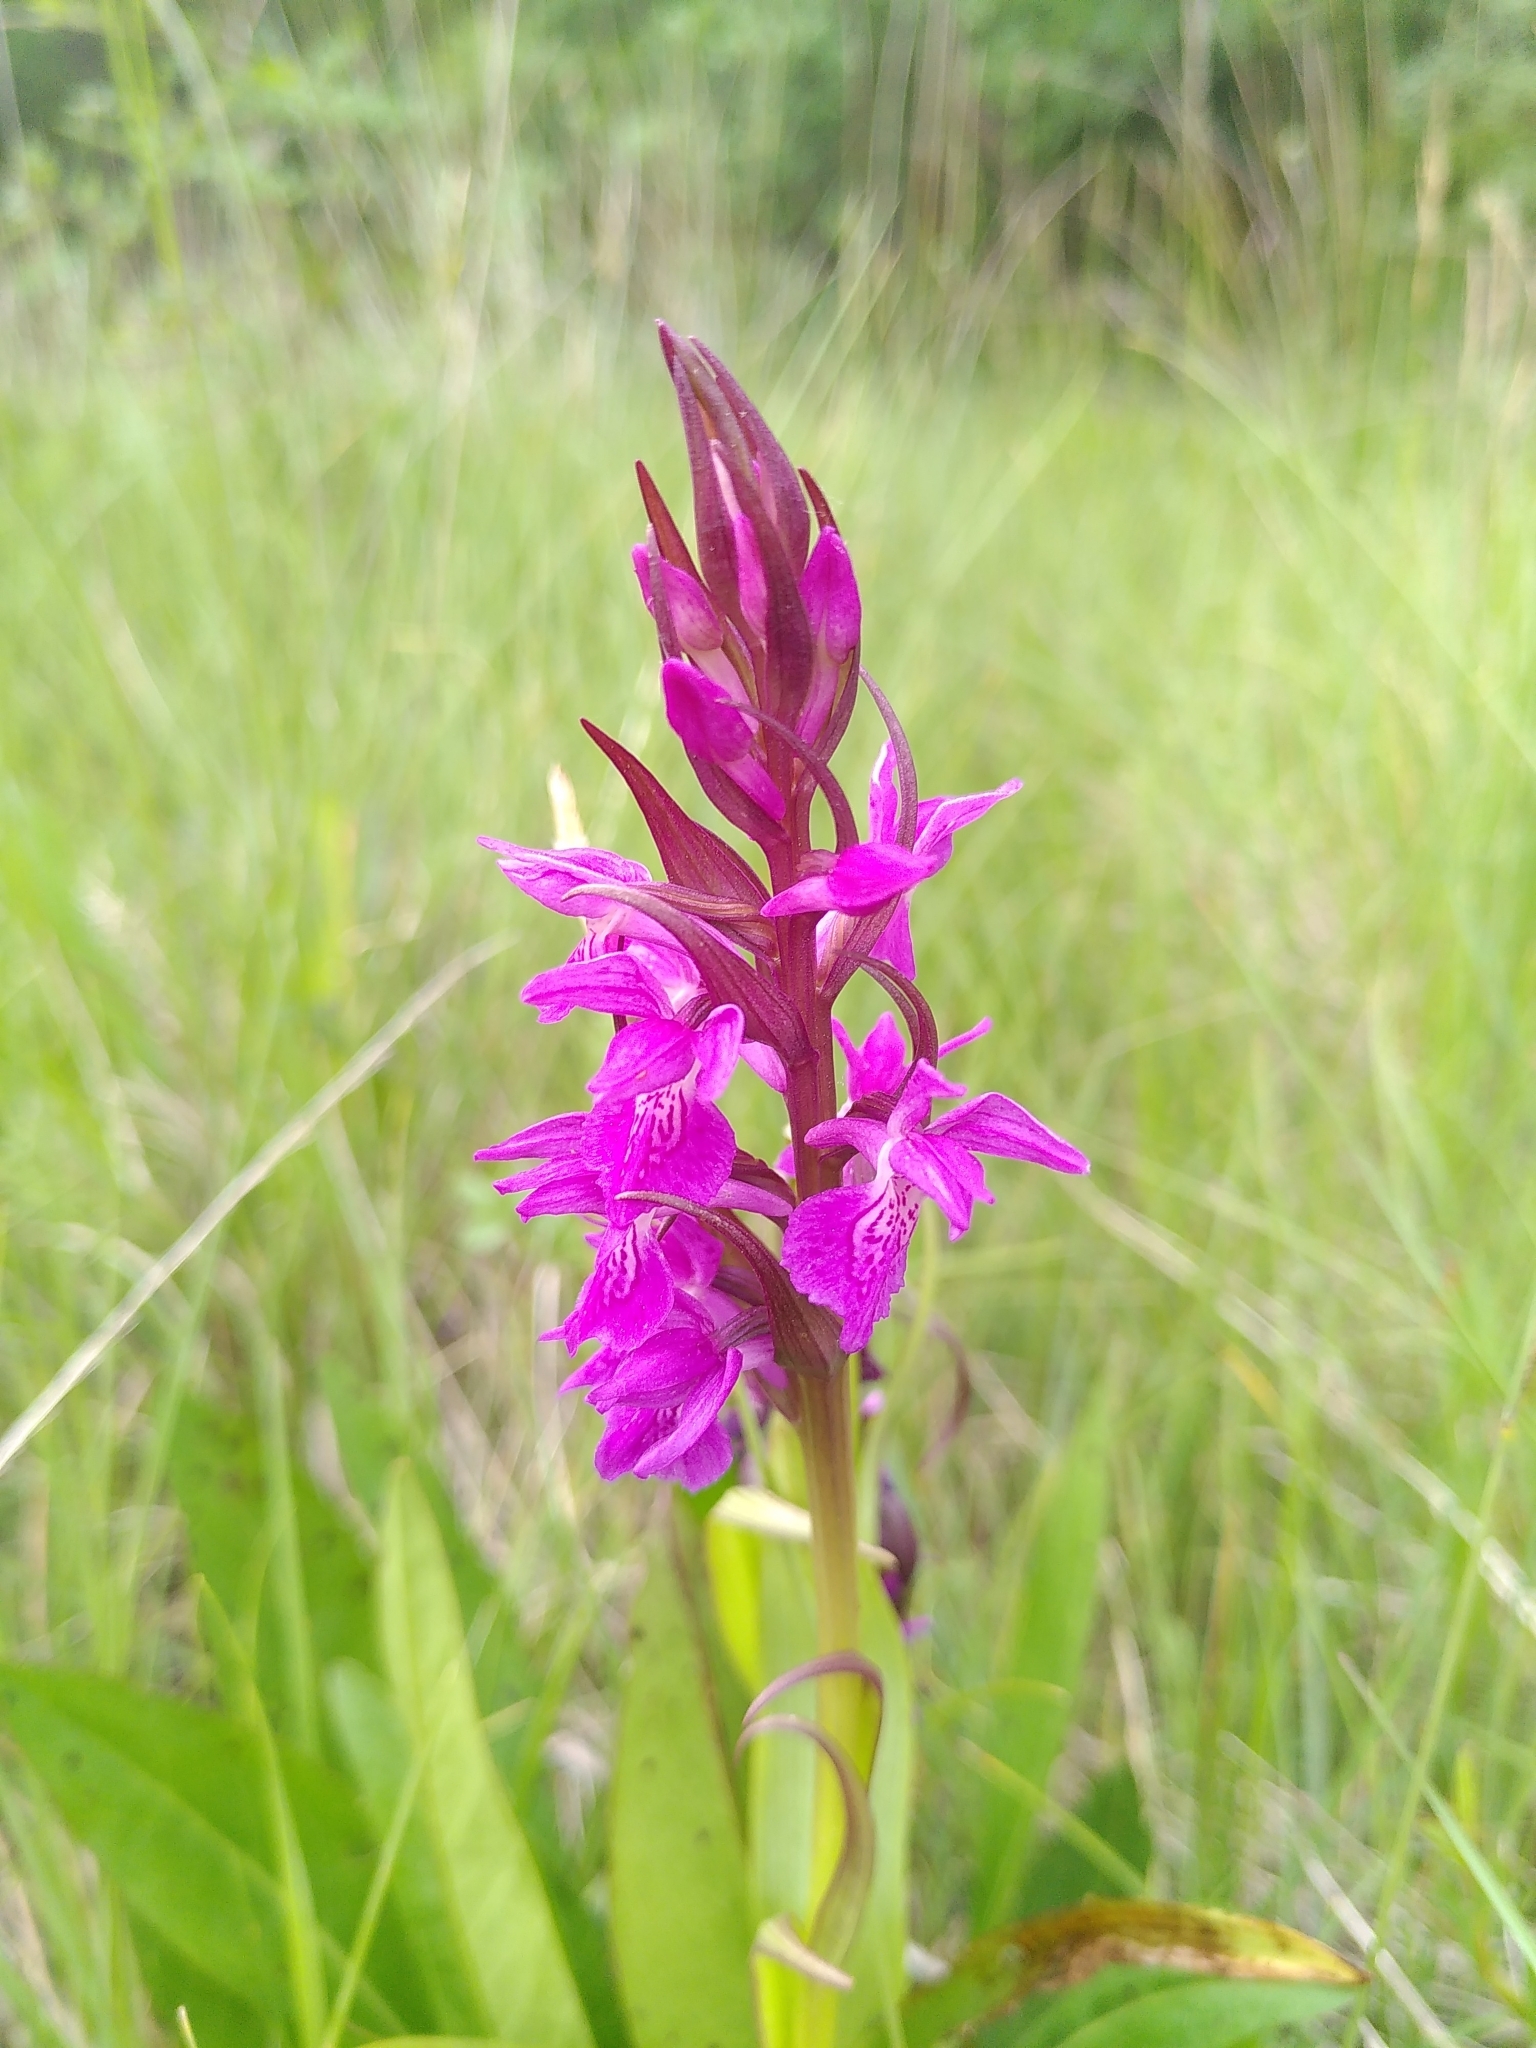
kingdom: Plantae
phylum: Tracheophyta
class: Liliopsida
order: Asparagales
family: Orchidaceae
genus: Dactylorhiza
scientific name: Dactylorhiza elata
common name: Stately dactylorhiza
